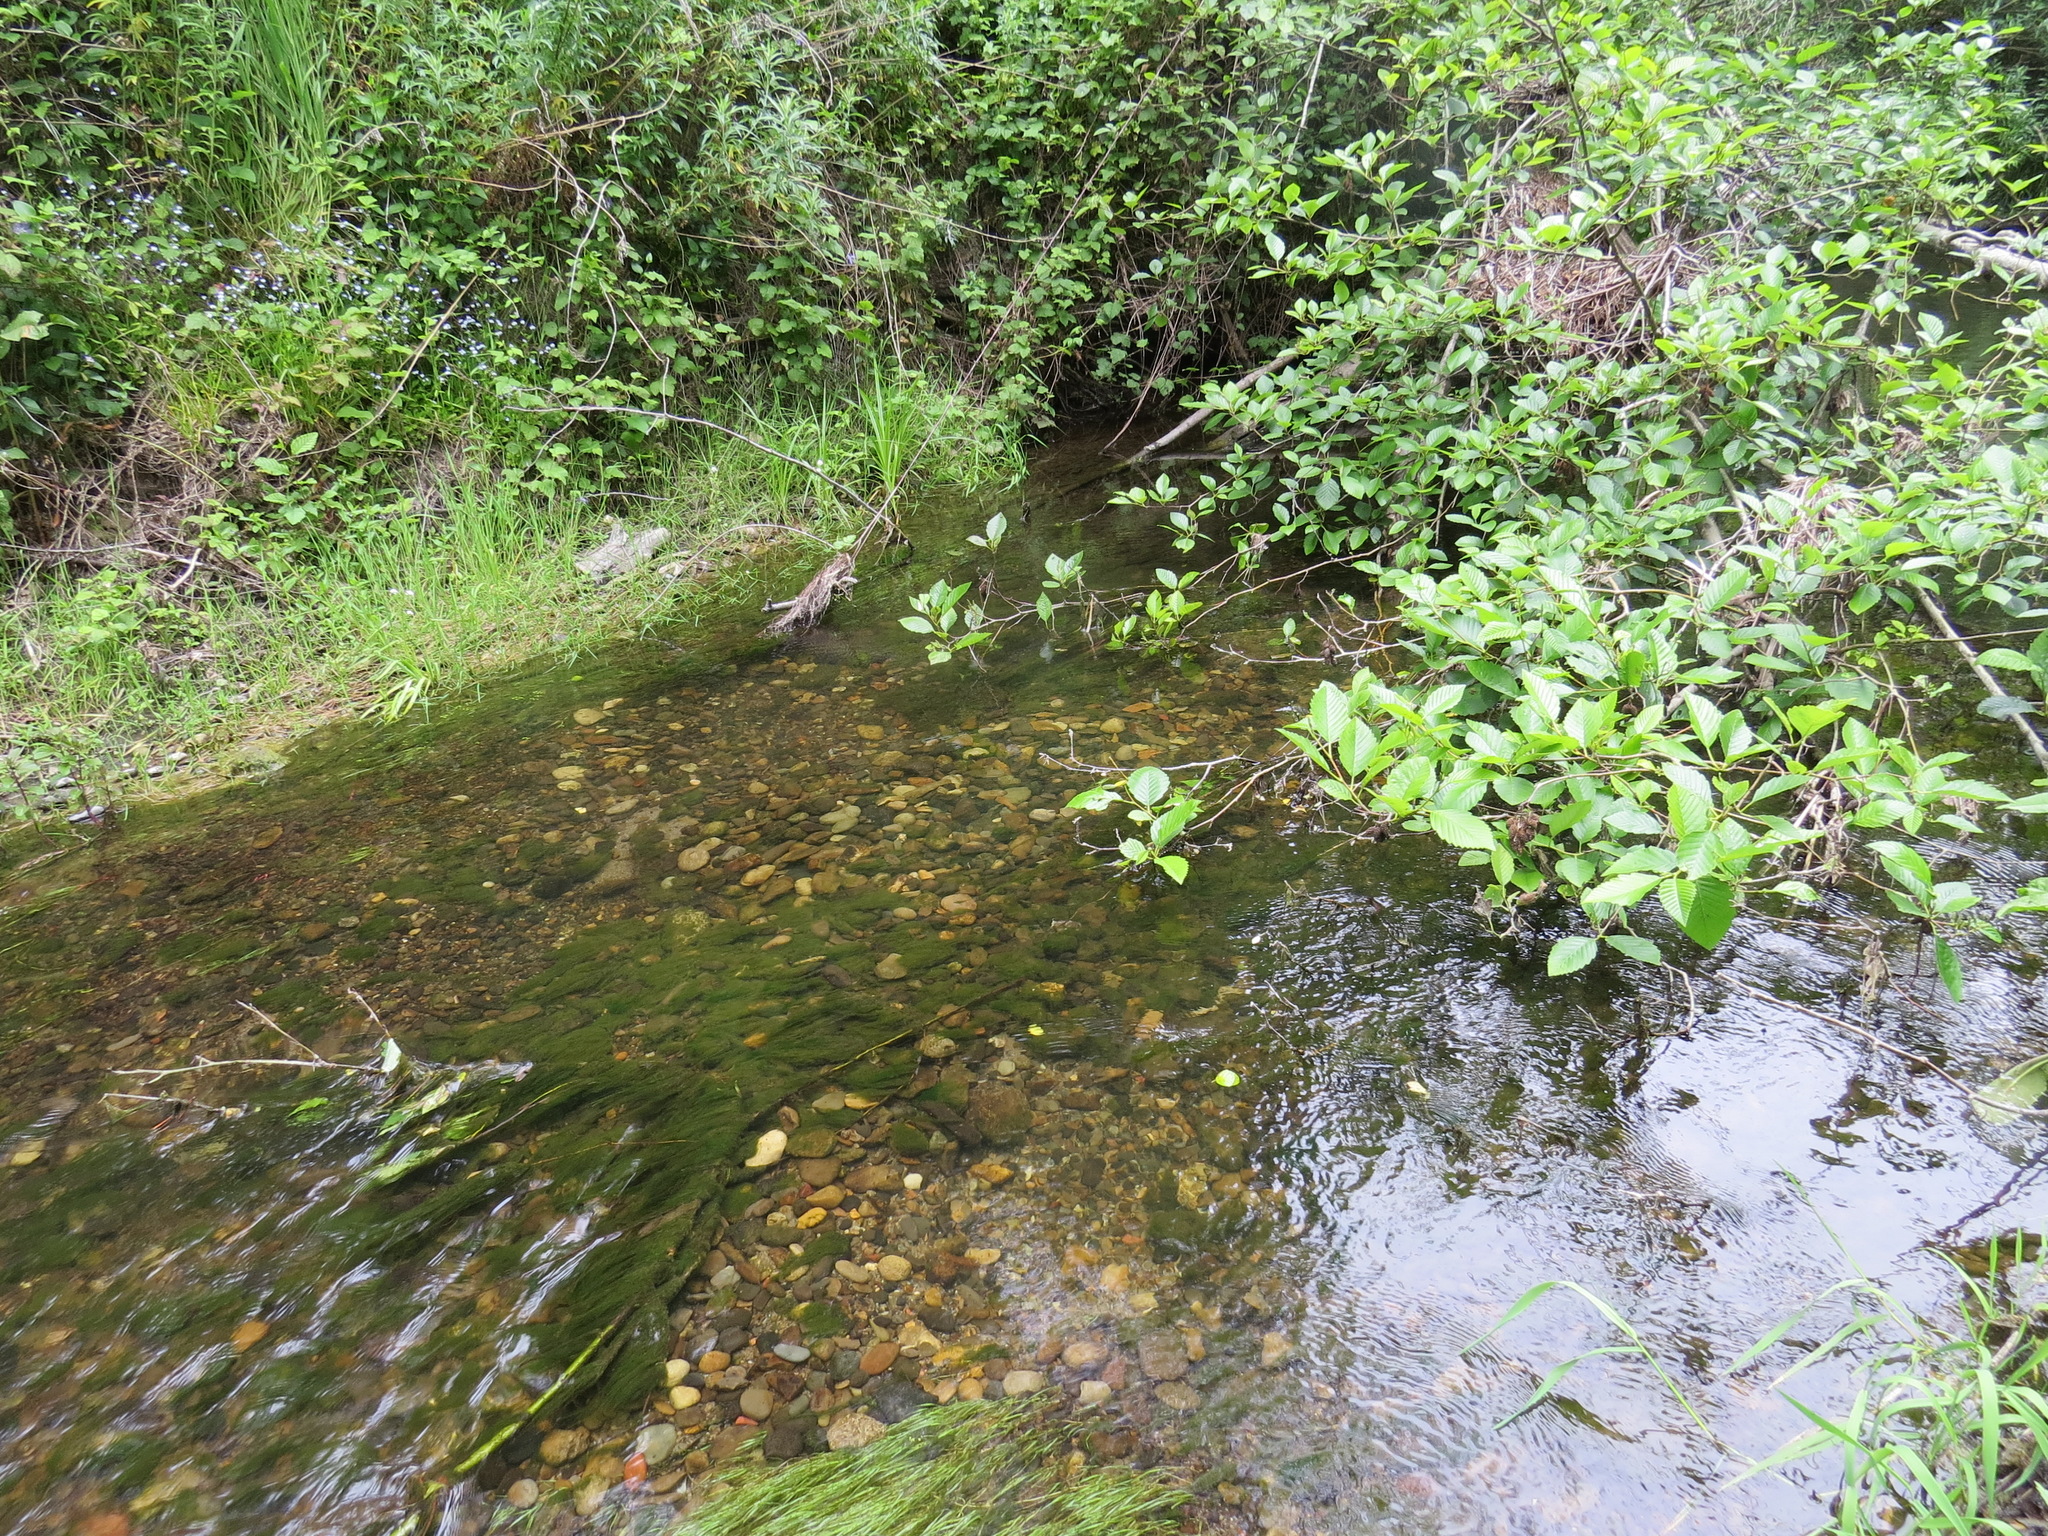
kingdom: Animalia
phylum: Chordata
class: Petromyzonti
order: Petromyzontiformes
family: Petromyzontidae
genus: Entosphenus
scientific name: Entosphenus tridentatus
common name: Pacific lamprey
